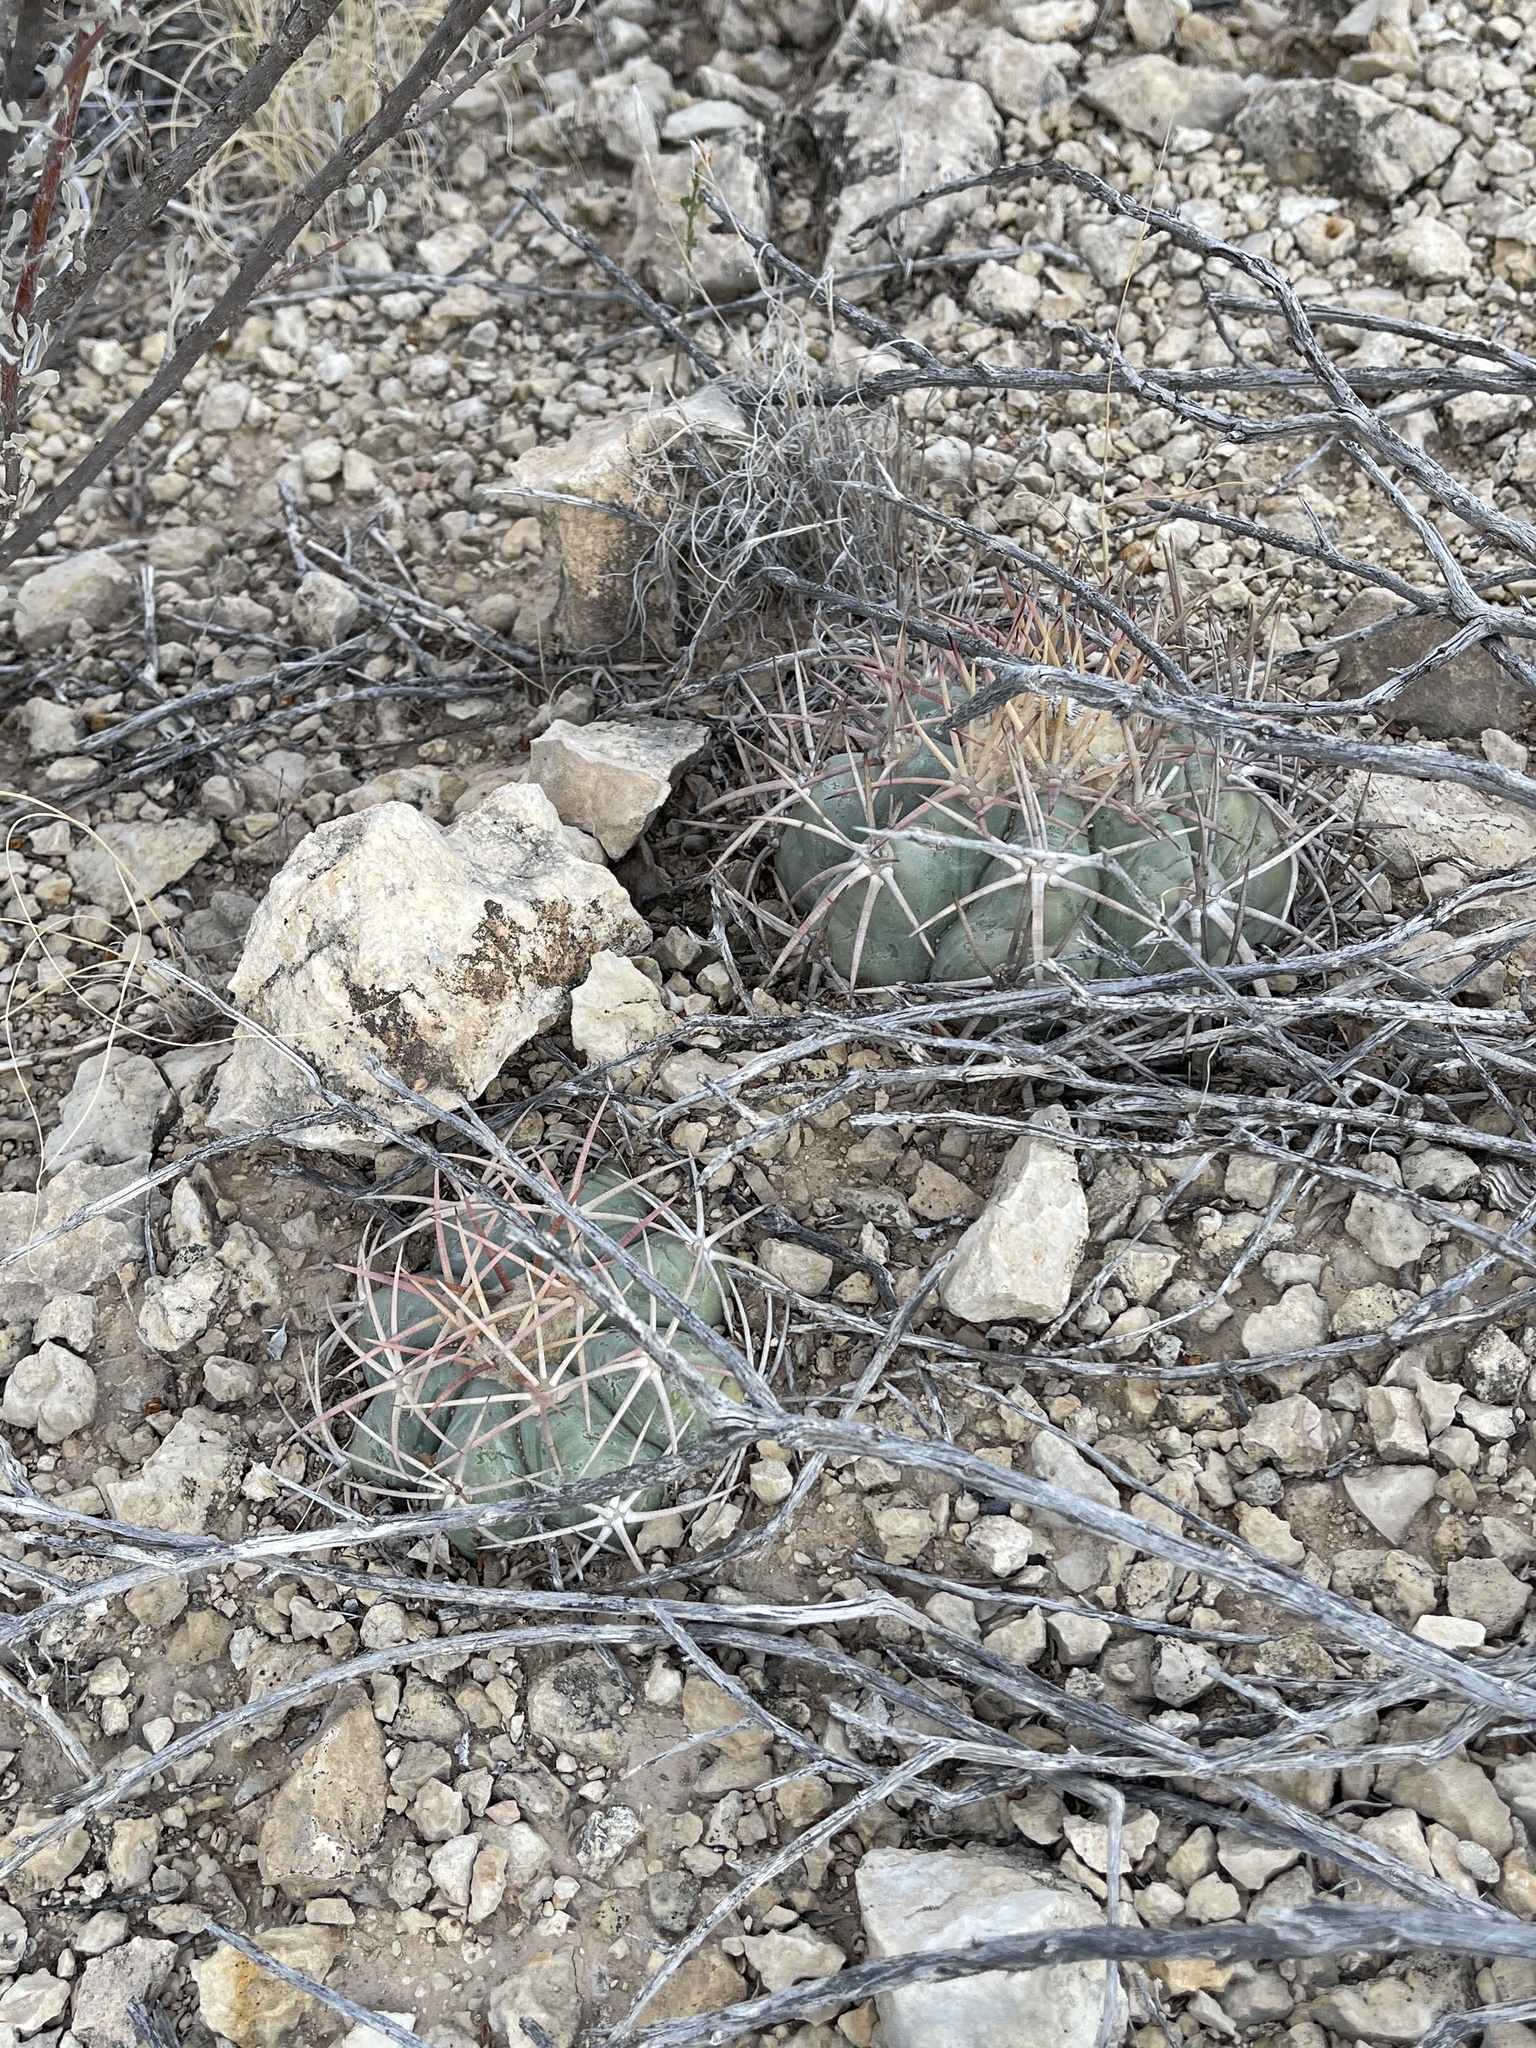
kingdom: Plantae
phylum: Tracheophyta
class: Magnoliopsida
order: Caryophyllales
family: Cactaceae
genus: Echinocactus
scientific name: Echinocactus horizonthalonius
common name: Devilshead
